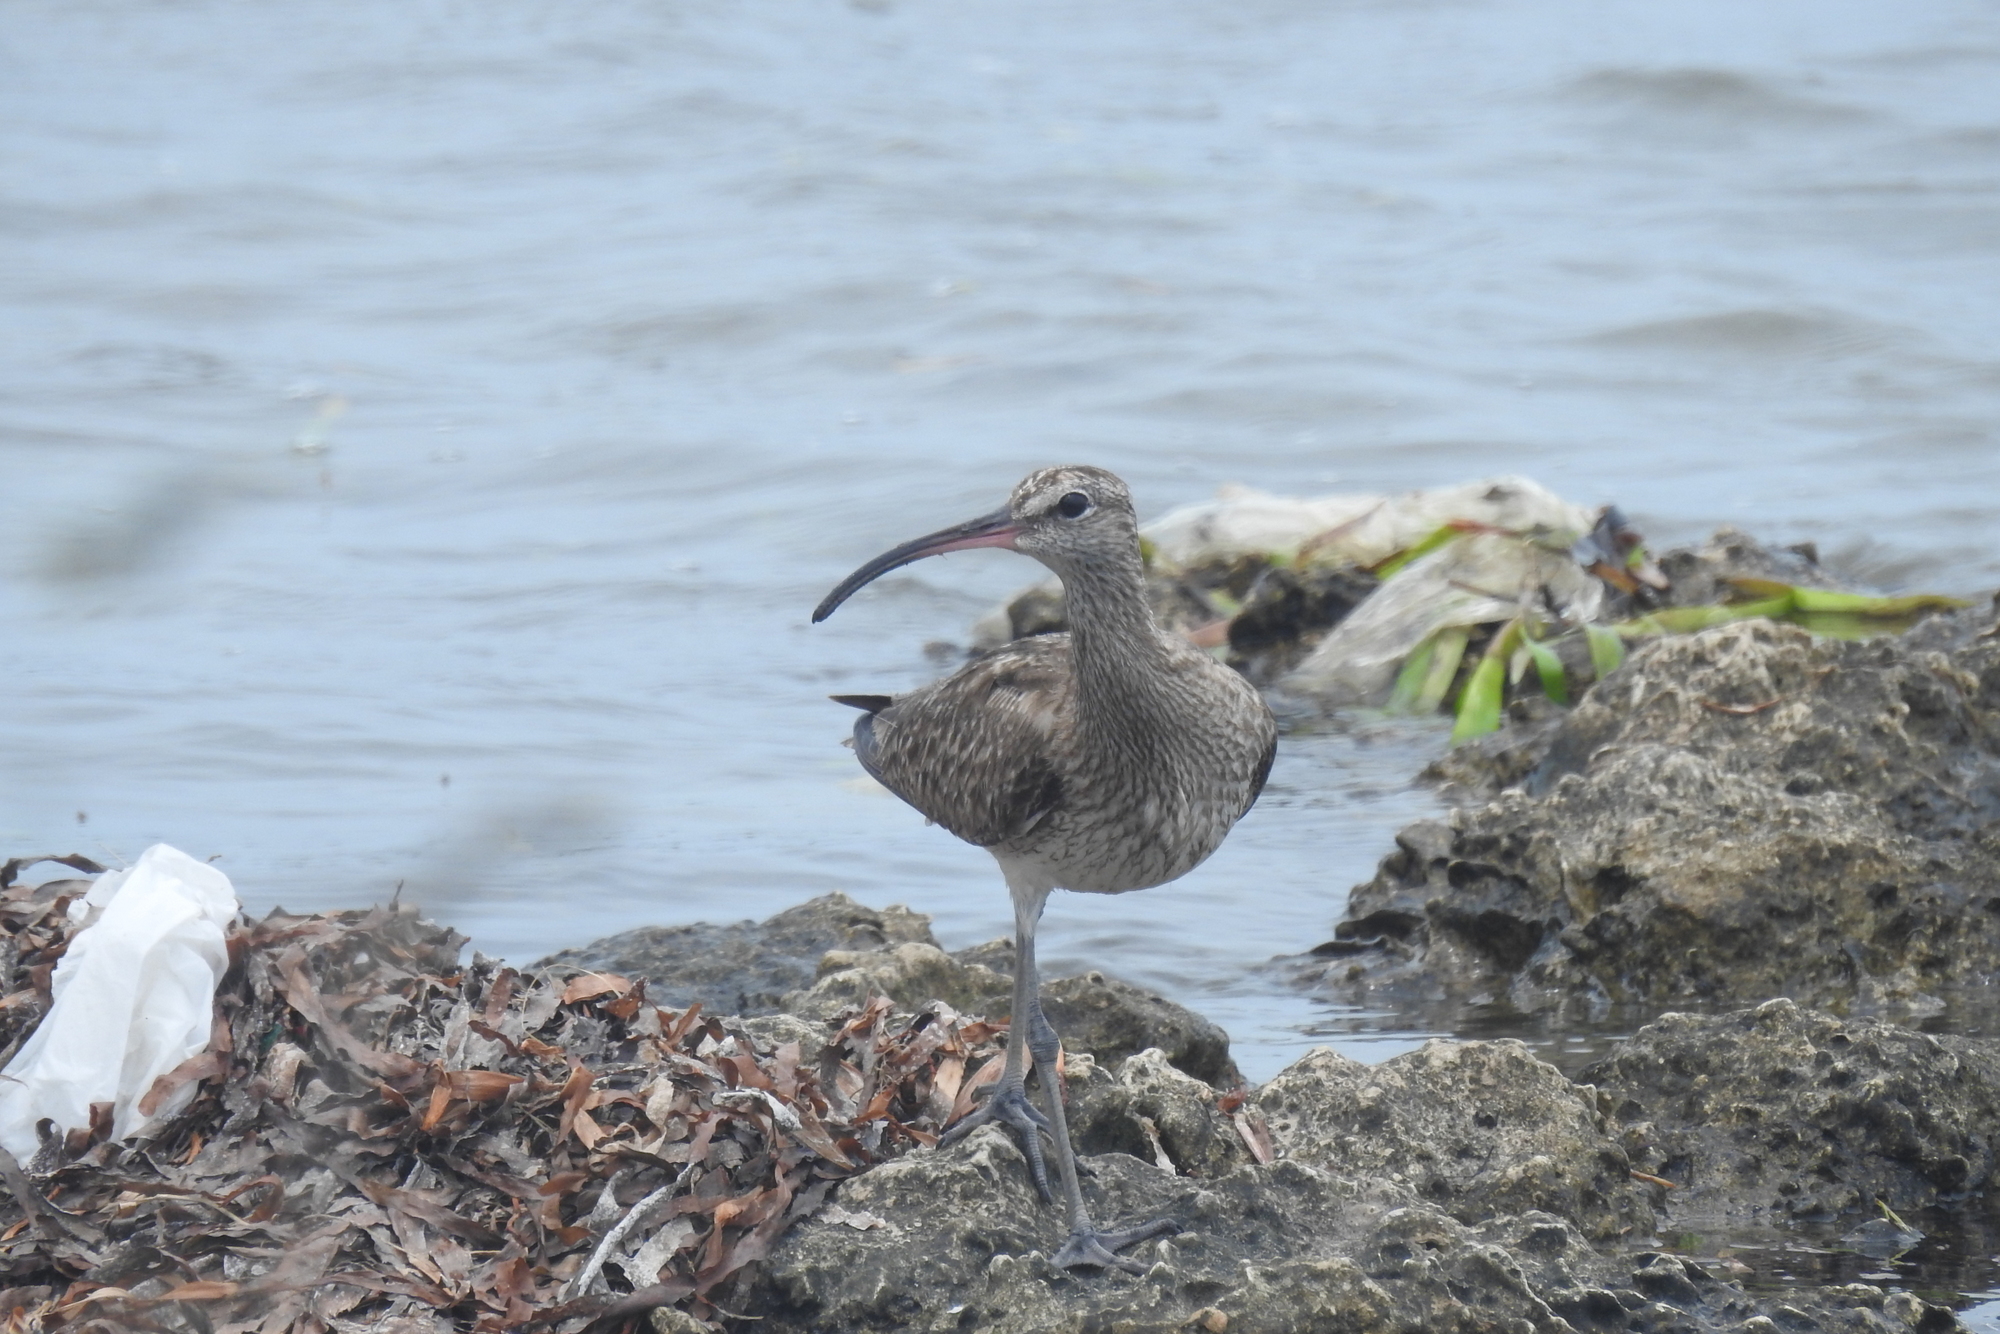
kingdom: Animalia
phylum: Chordata
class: Aves
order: Charadriiformes
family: Scolopacidae
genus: Numenius
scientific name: Numenius phaeopus
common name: Whimbrel
